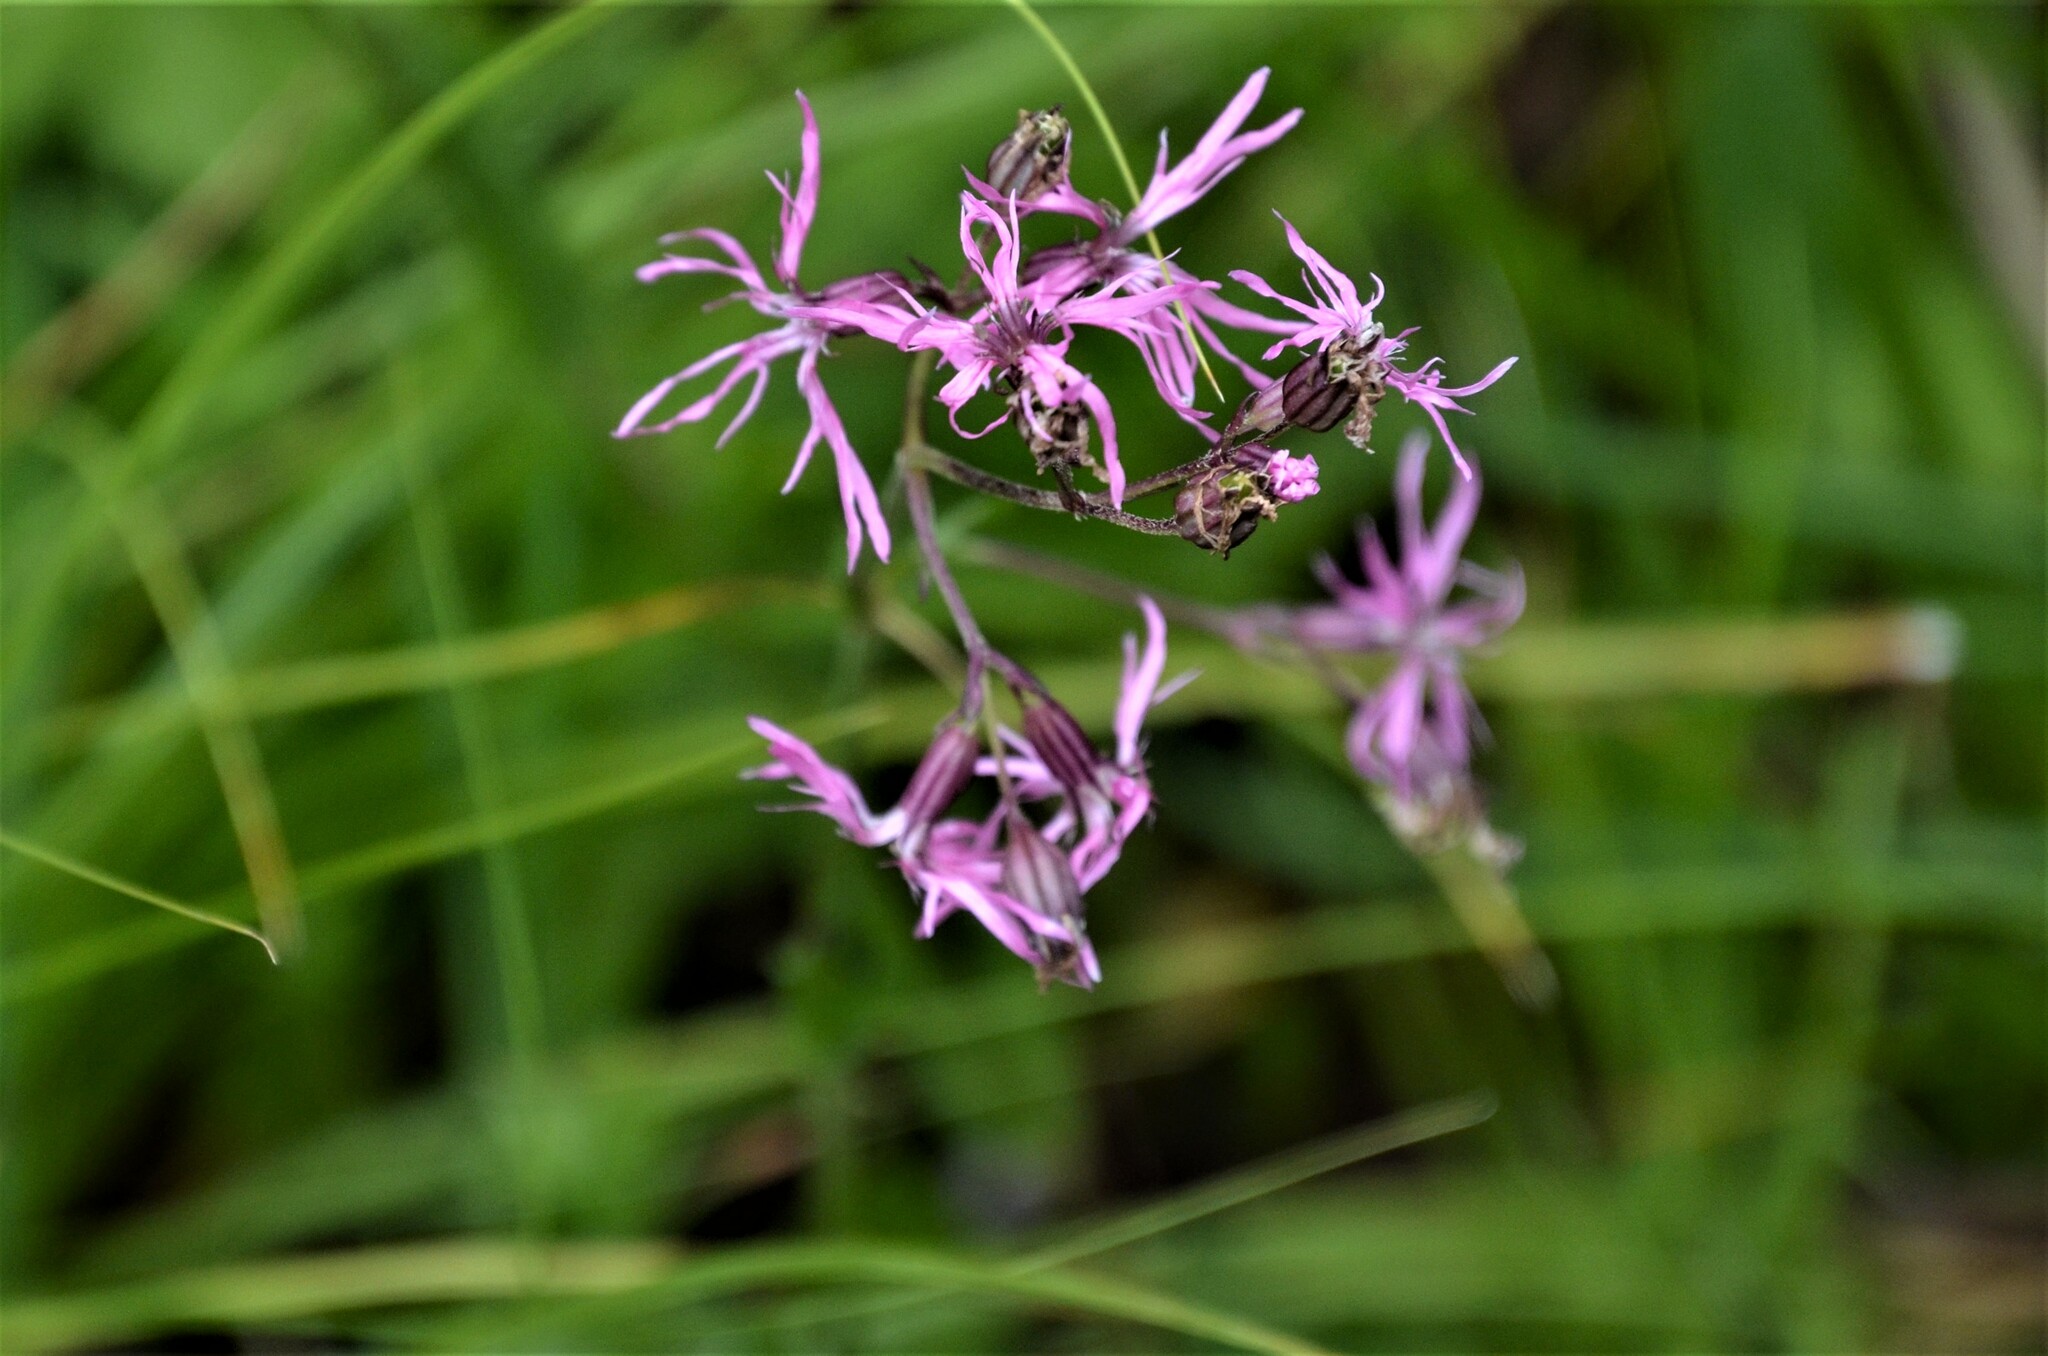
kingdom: Plantae
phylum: Tracheophyta
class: Magnoliopsida
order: Caryophyllales
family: Caryophyllaceae
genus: Silene
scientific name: Silene flos-cuculi
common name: Ragged-robin
